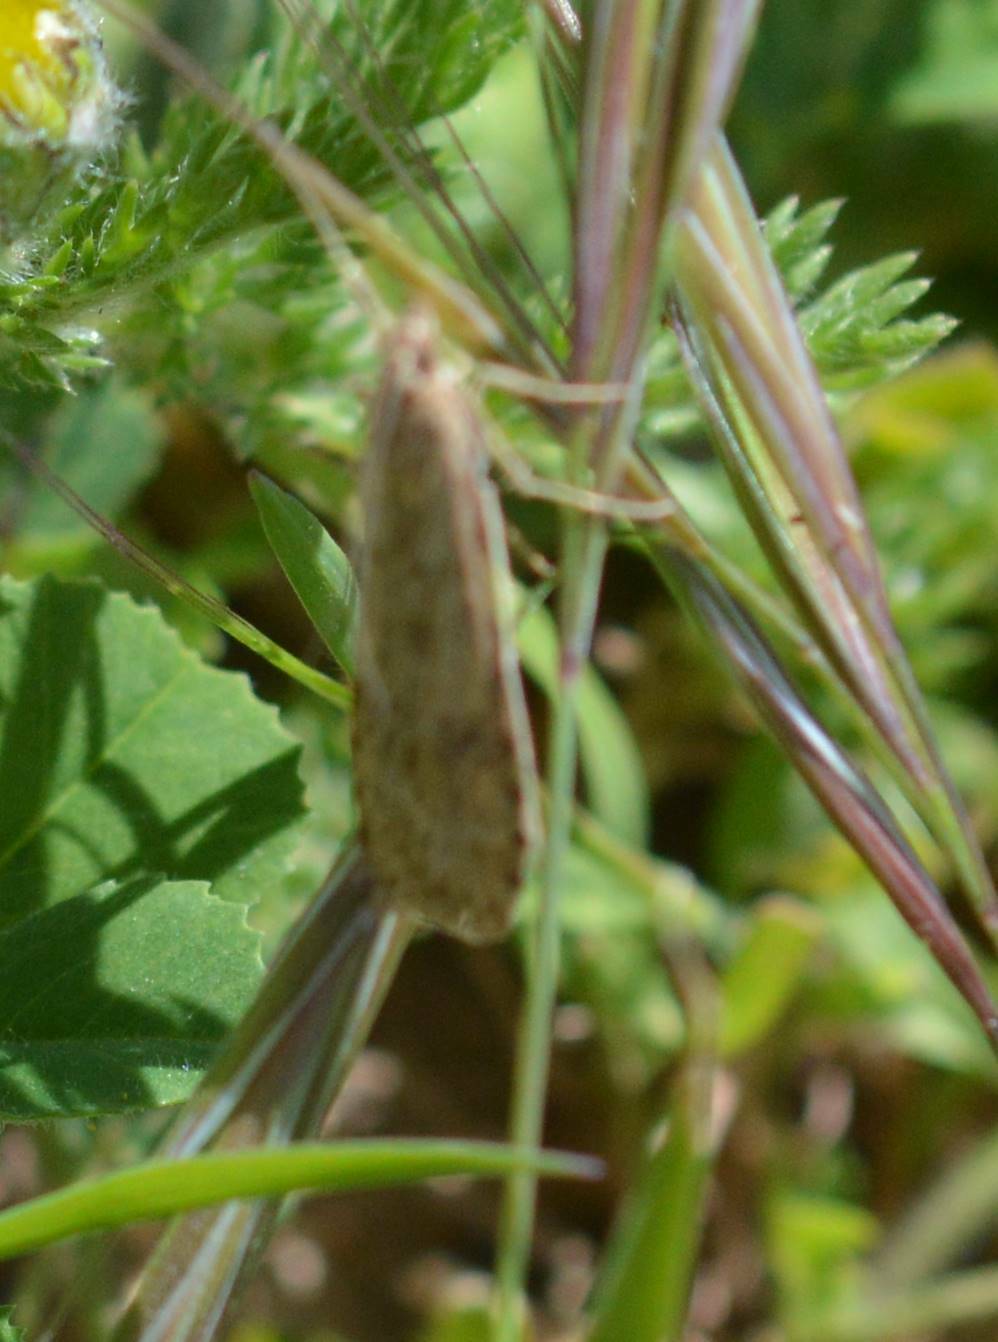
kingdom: Animalia
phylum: Arthropoda
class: Insecta
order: Lepidoptera
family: Crambidae
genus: Nomophila
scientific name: Nomophila noctuella
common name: Rush veneer
